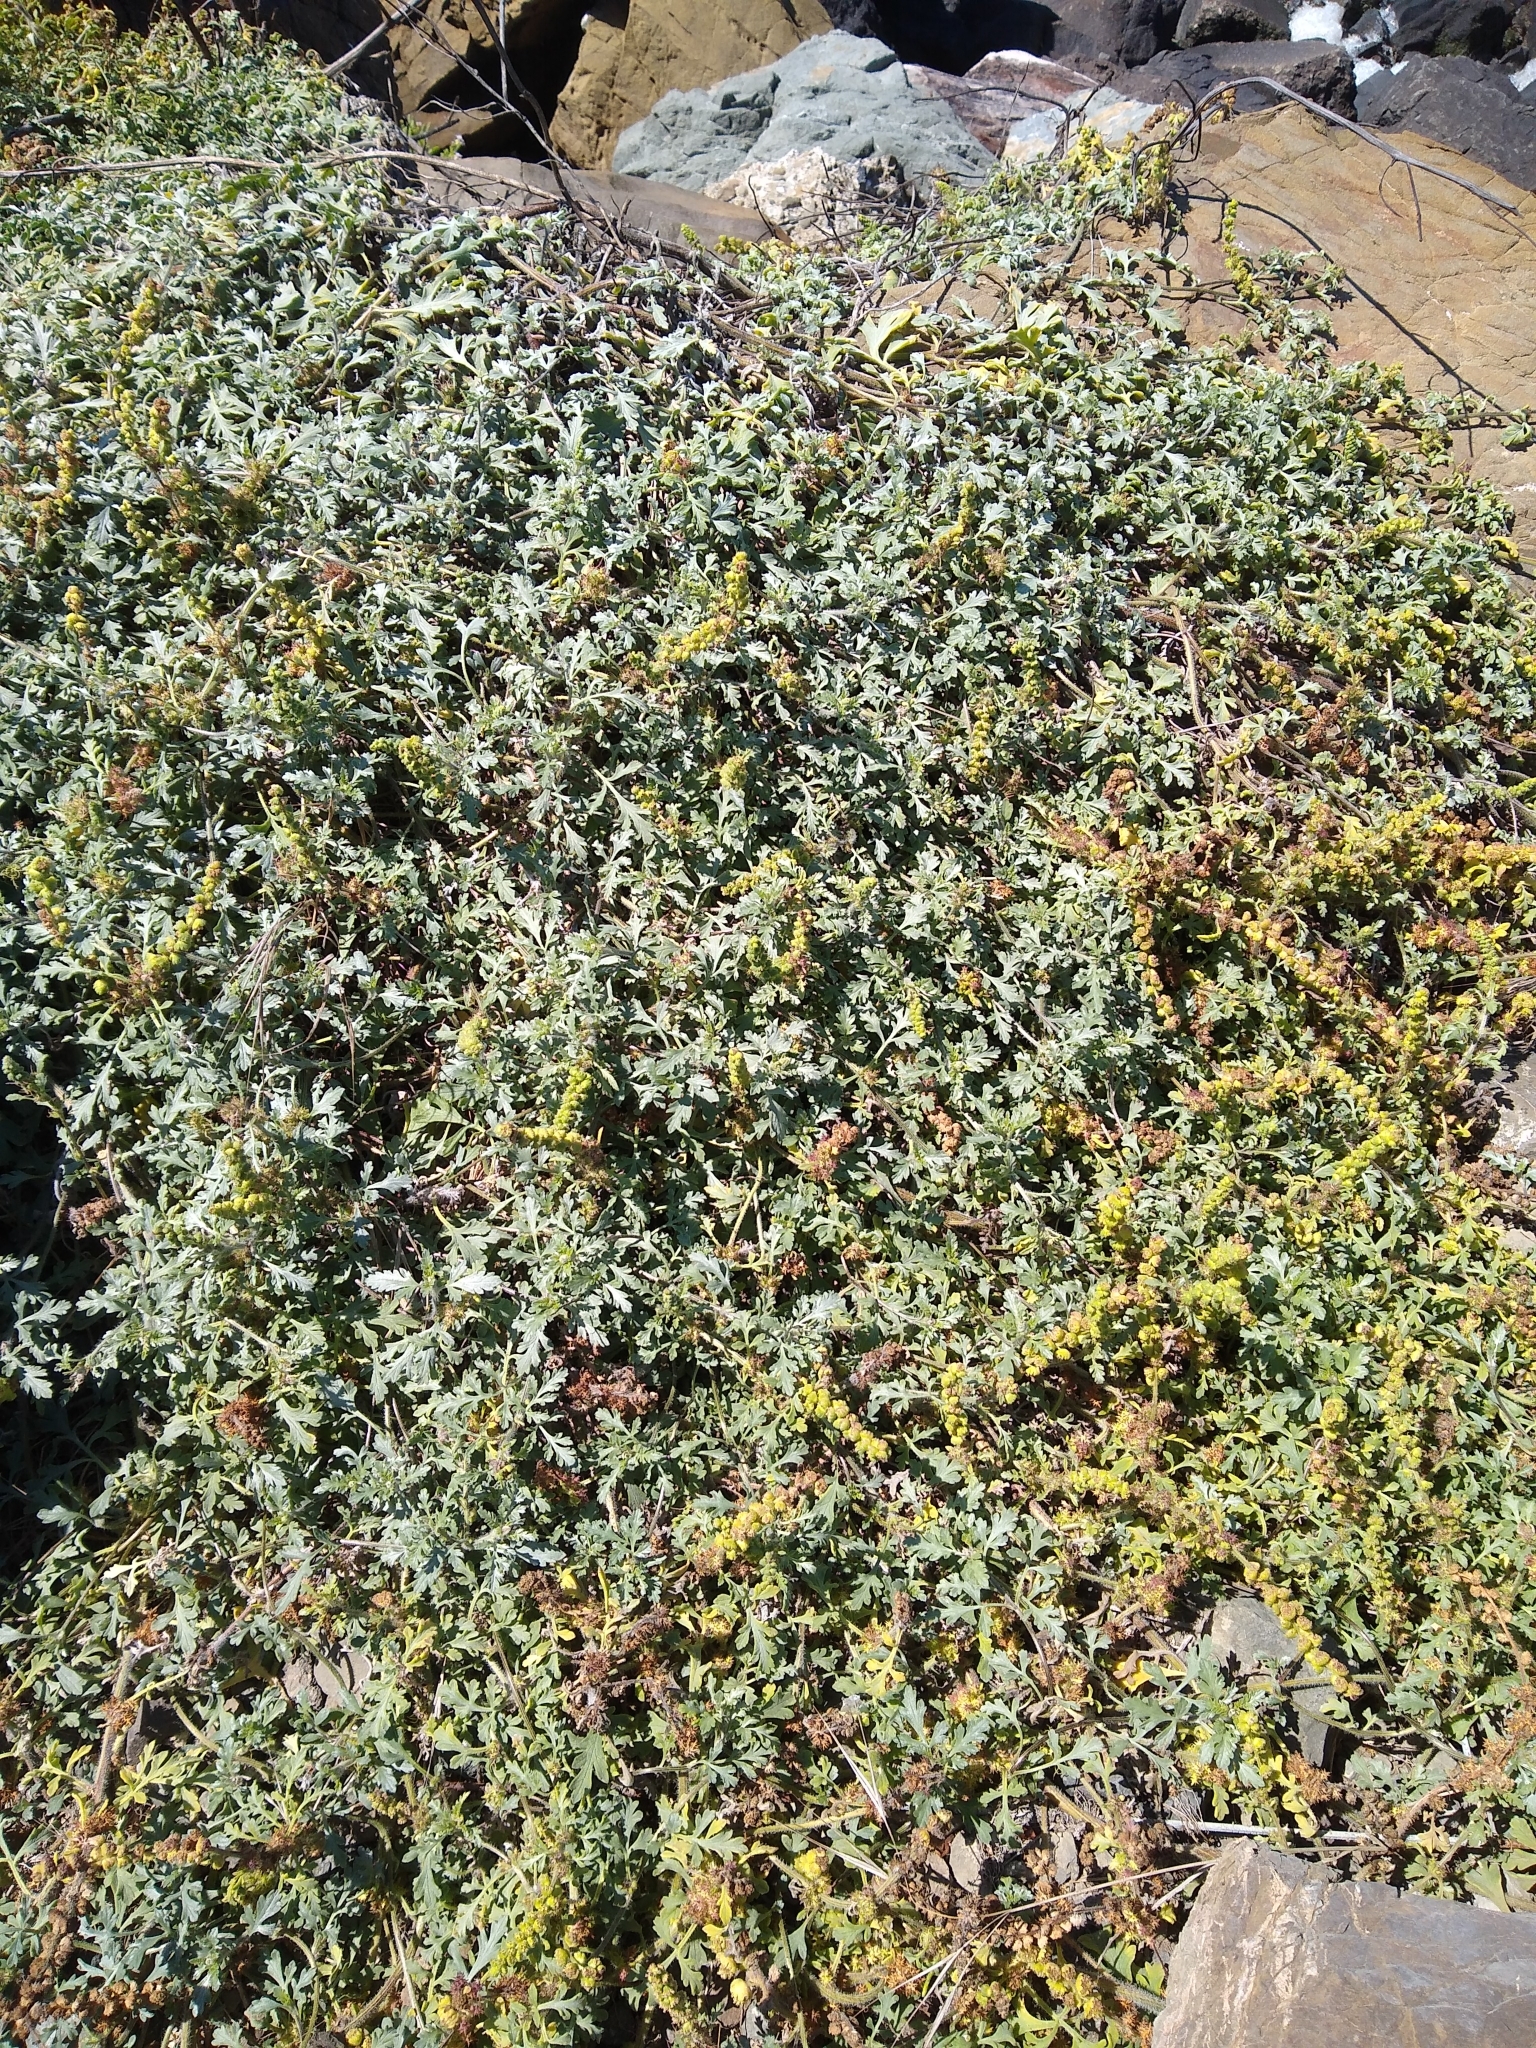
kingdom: Plantae
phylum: Tracheophyta
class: Magnoliopsida
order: Asterales
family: Asteraceae
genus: Ambrosia
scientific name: Ambrosia chamissonis
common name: Beachbur
